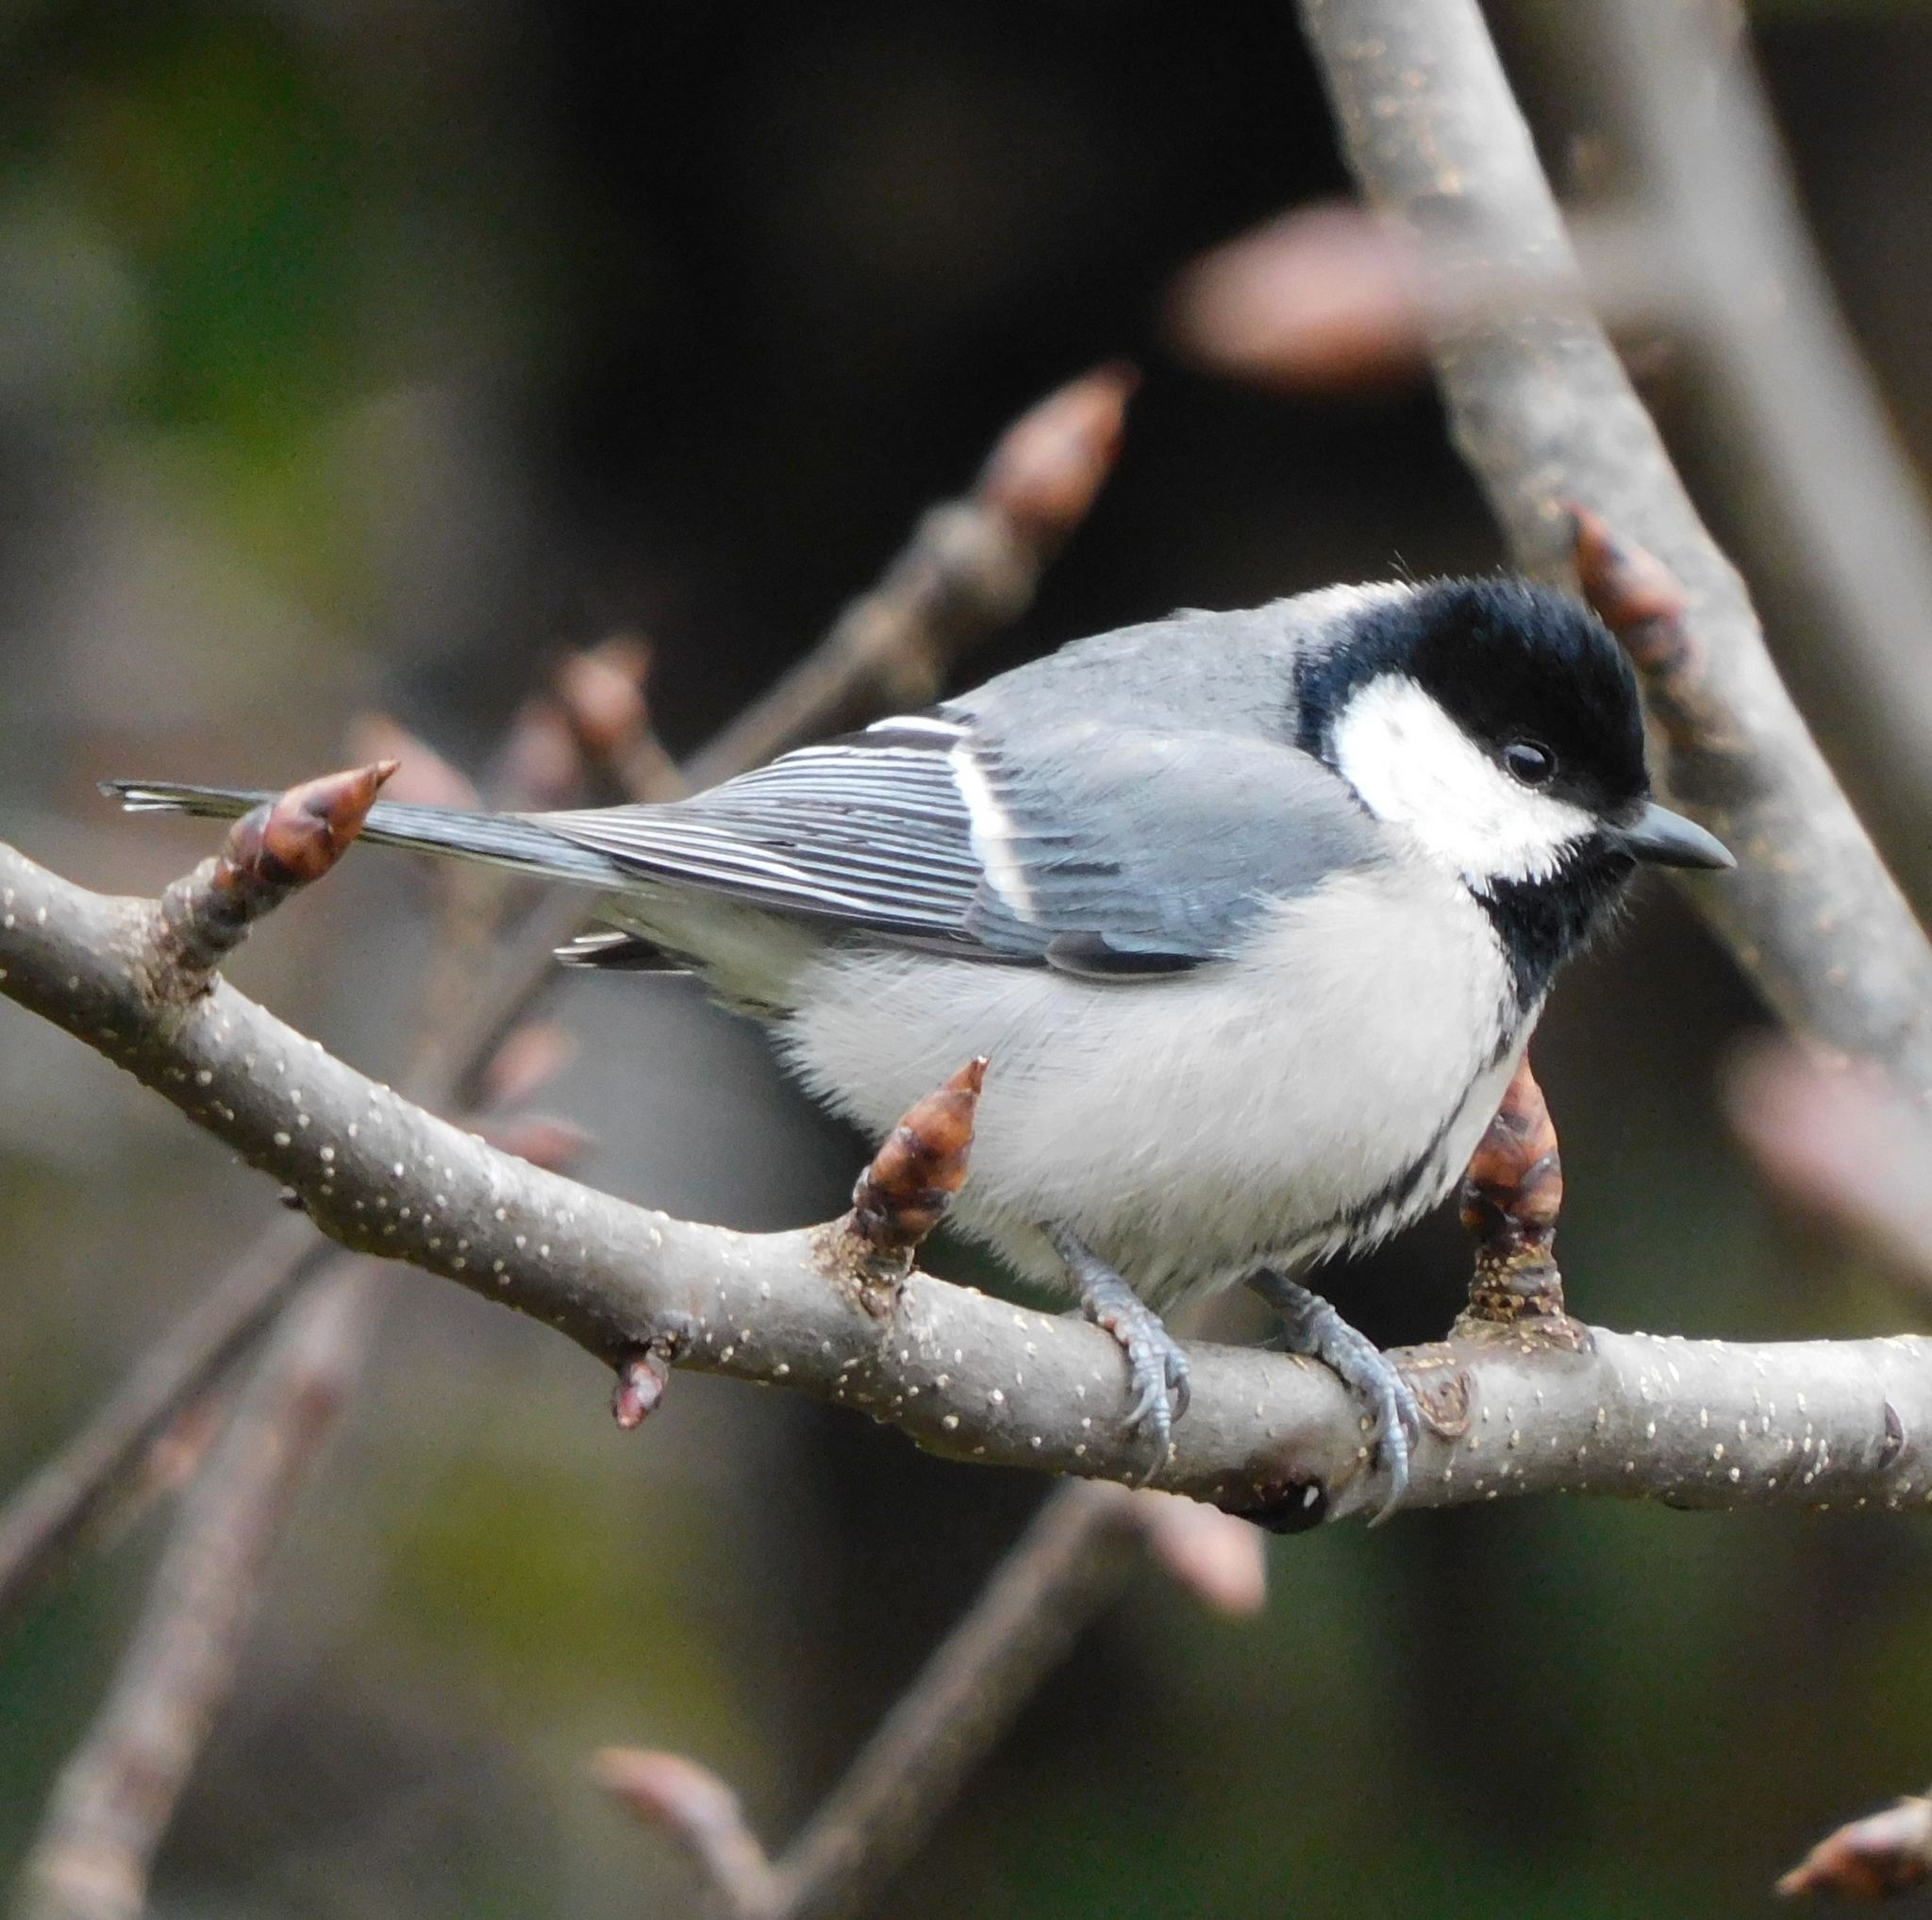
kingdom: Animalia
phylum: Chordata
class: Aves
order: Passeriformes
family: Paridae
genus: Parus
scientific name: Parus cinereus
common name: Cinereous tit
